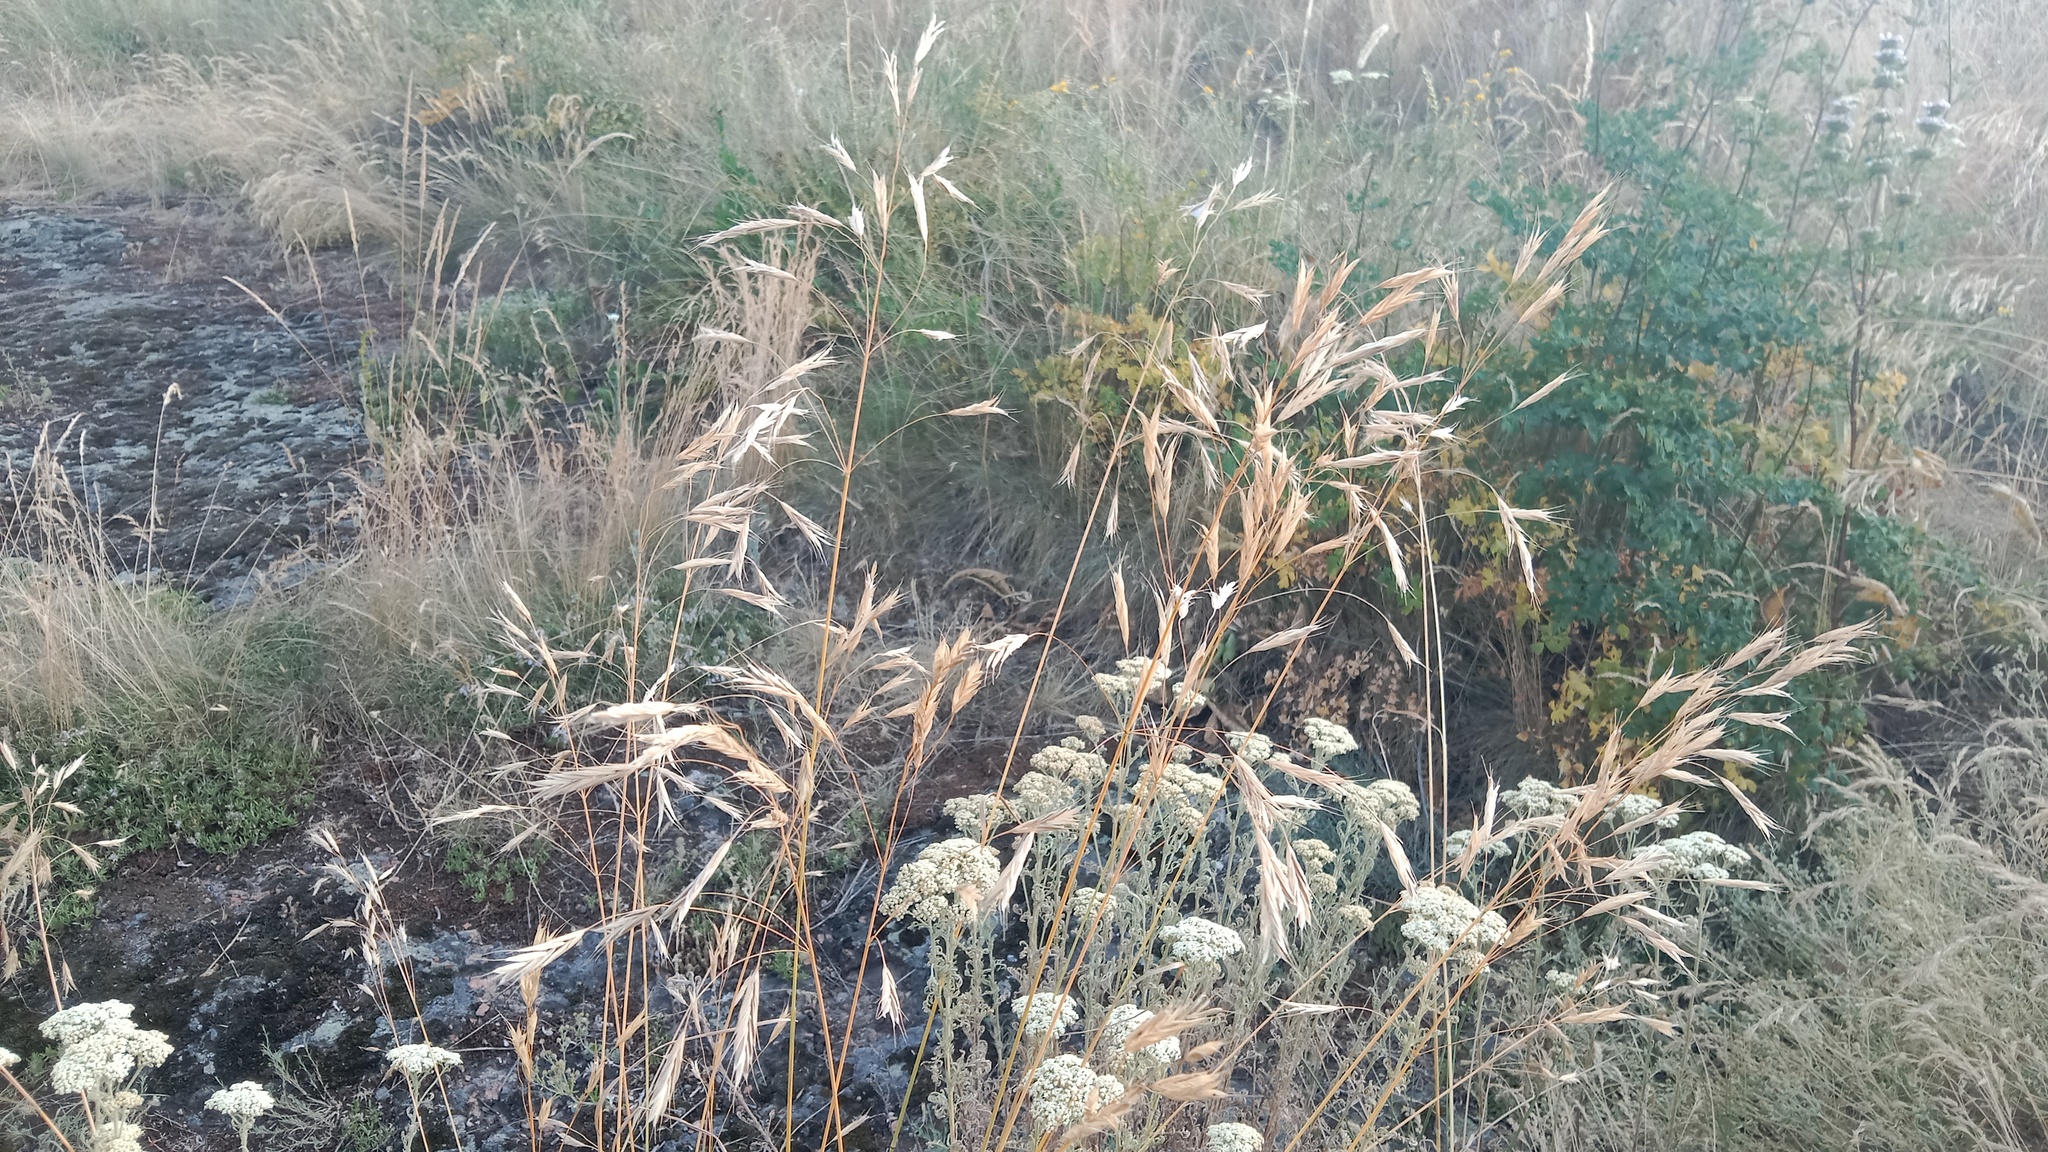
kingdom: Plantae
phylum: Tracheophyta
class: Liliopsida
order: Poales
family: Poaceae
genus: Bromus
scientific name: Bromus riparius
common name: Meadow brome
